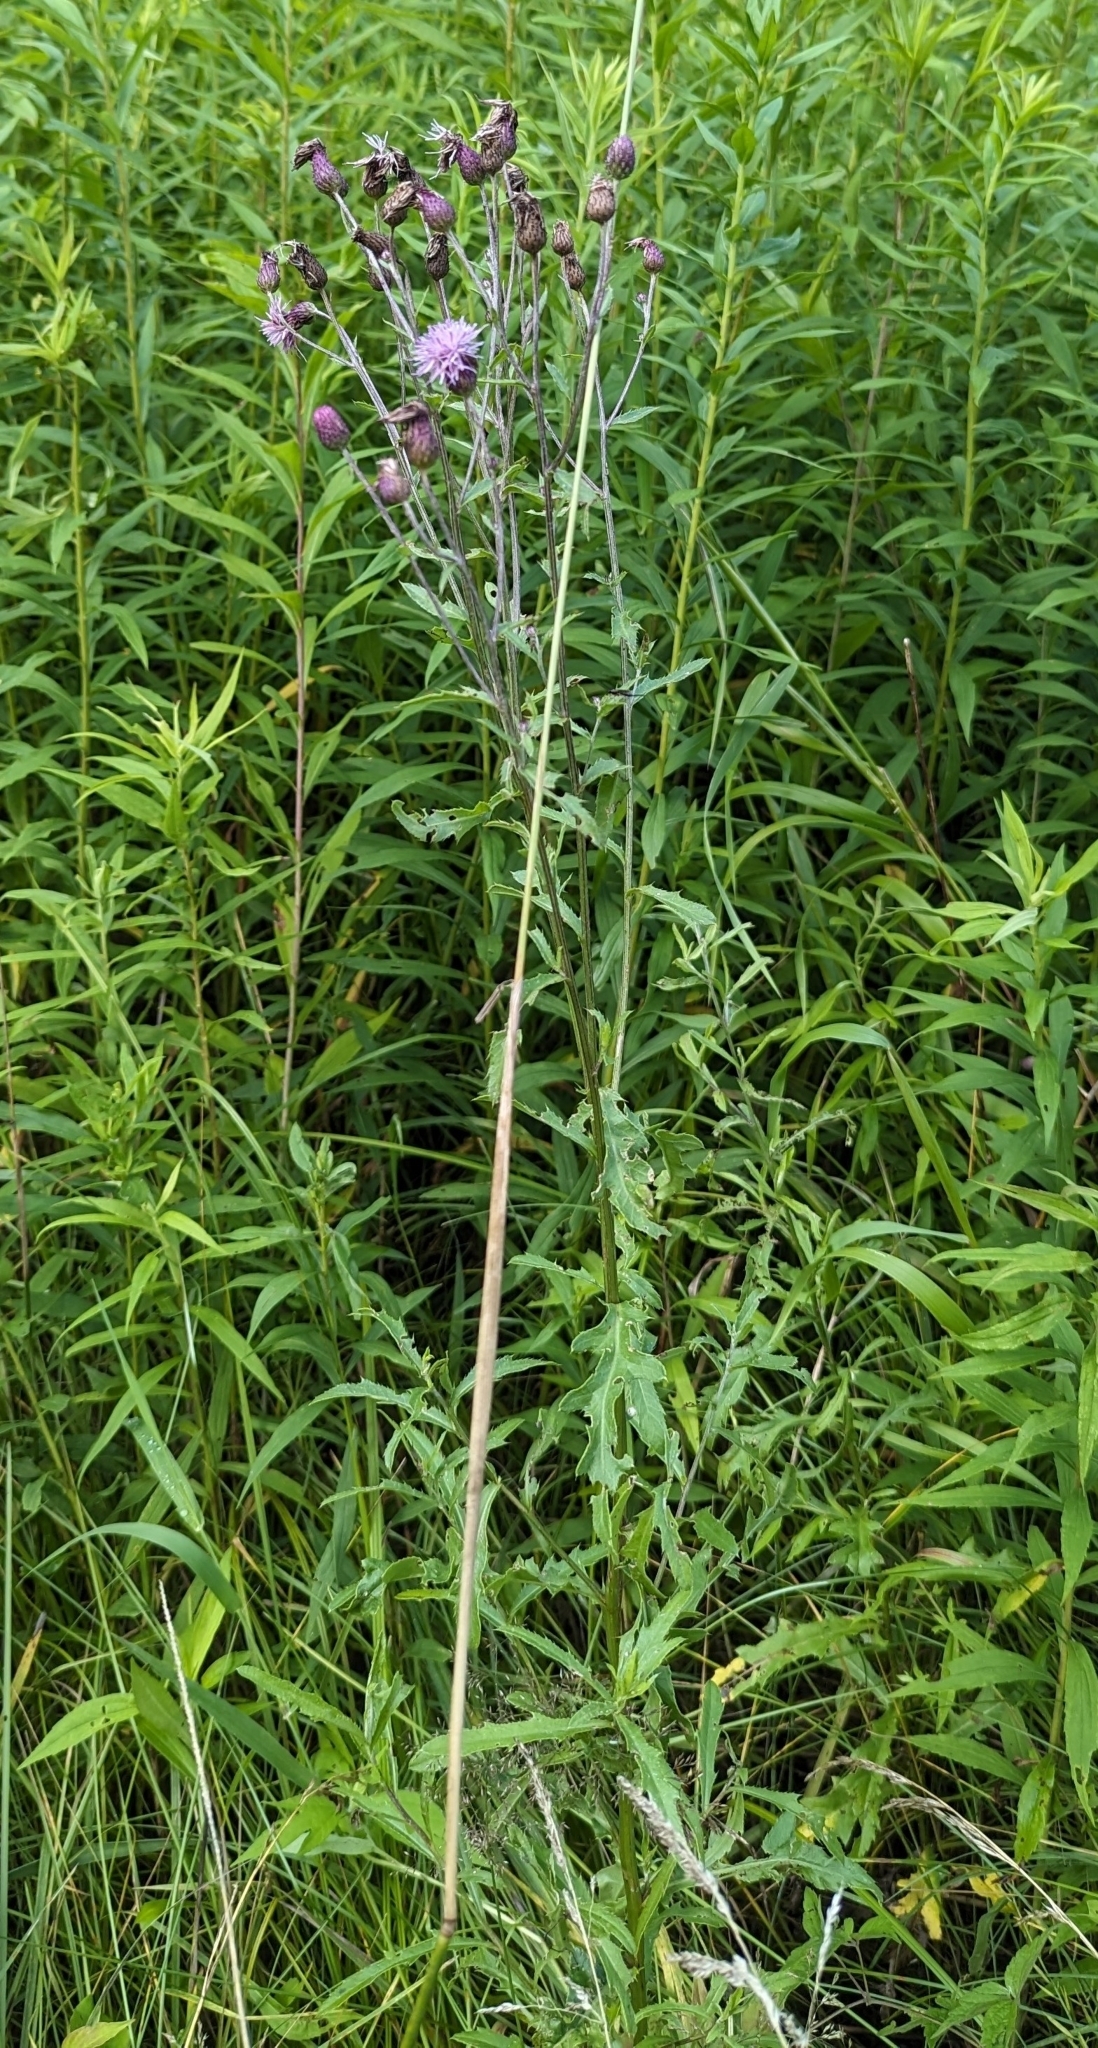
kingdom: Plantae
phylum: Tracheophyta
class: Magnoliopsida
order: Asterales
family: Asteraceae
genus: Cirsium
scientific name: Cirsium arvense
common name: Creeping thistle
